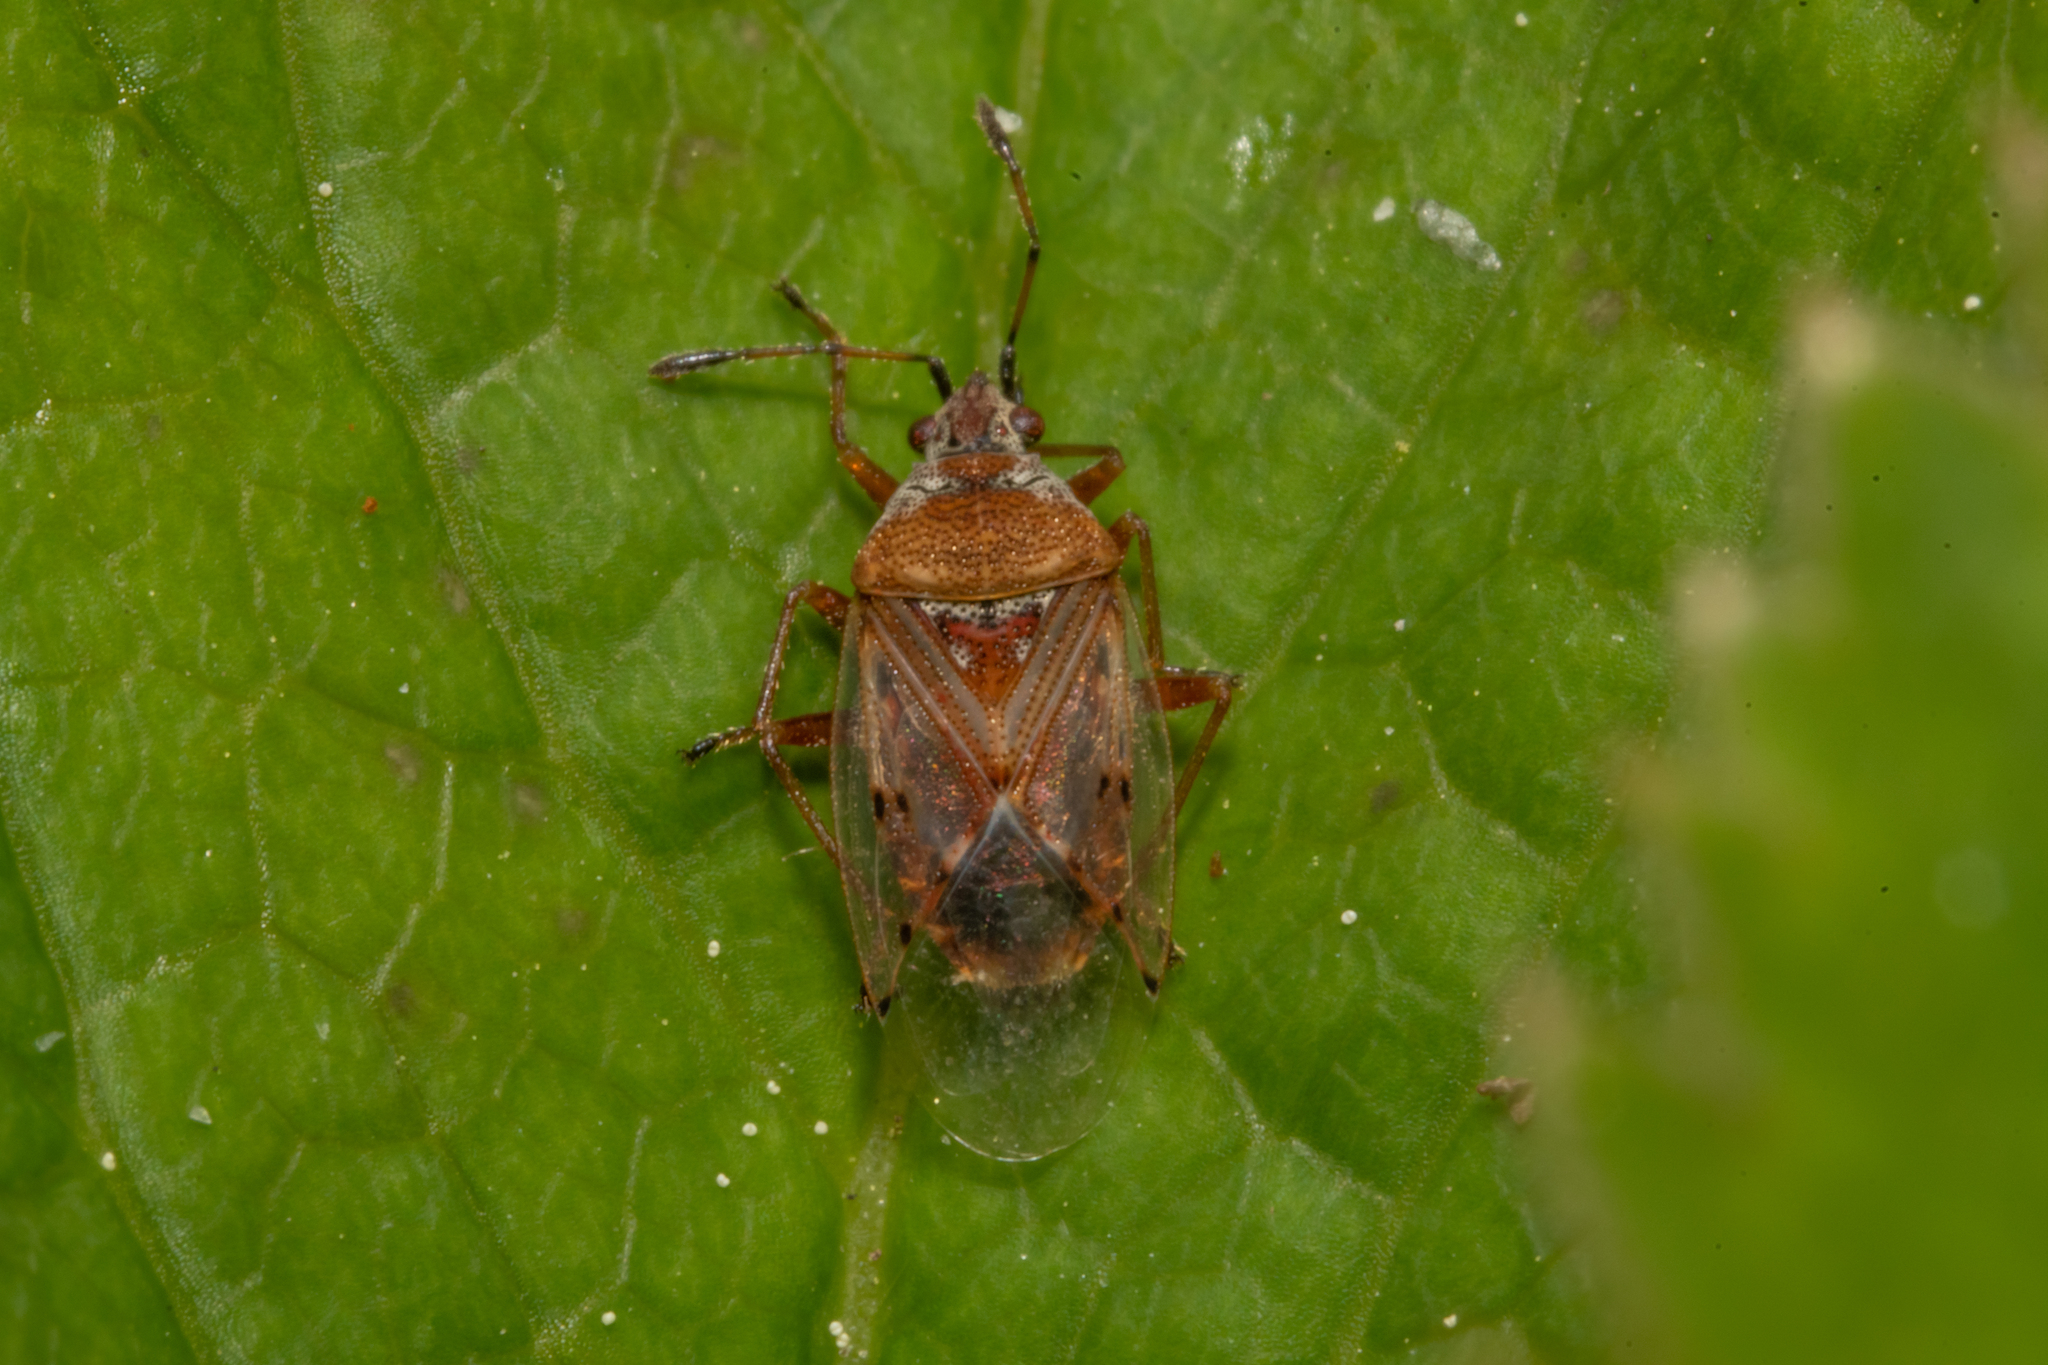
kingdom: Animalia
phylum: Arthropoda
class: Insecta
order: Hemiptera
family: Lygaeidae
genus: Kleidocerys
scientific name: Kleidocerys resedae
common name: Birch catkin bug
